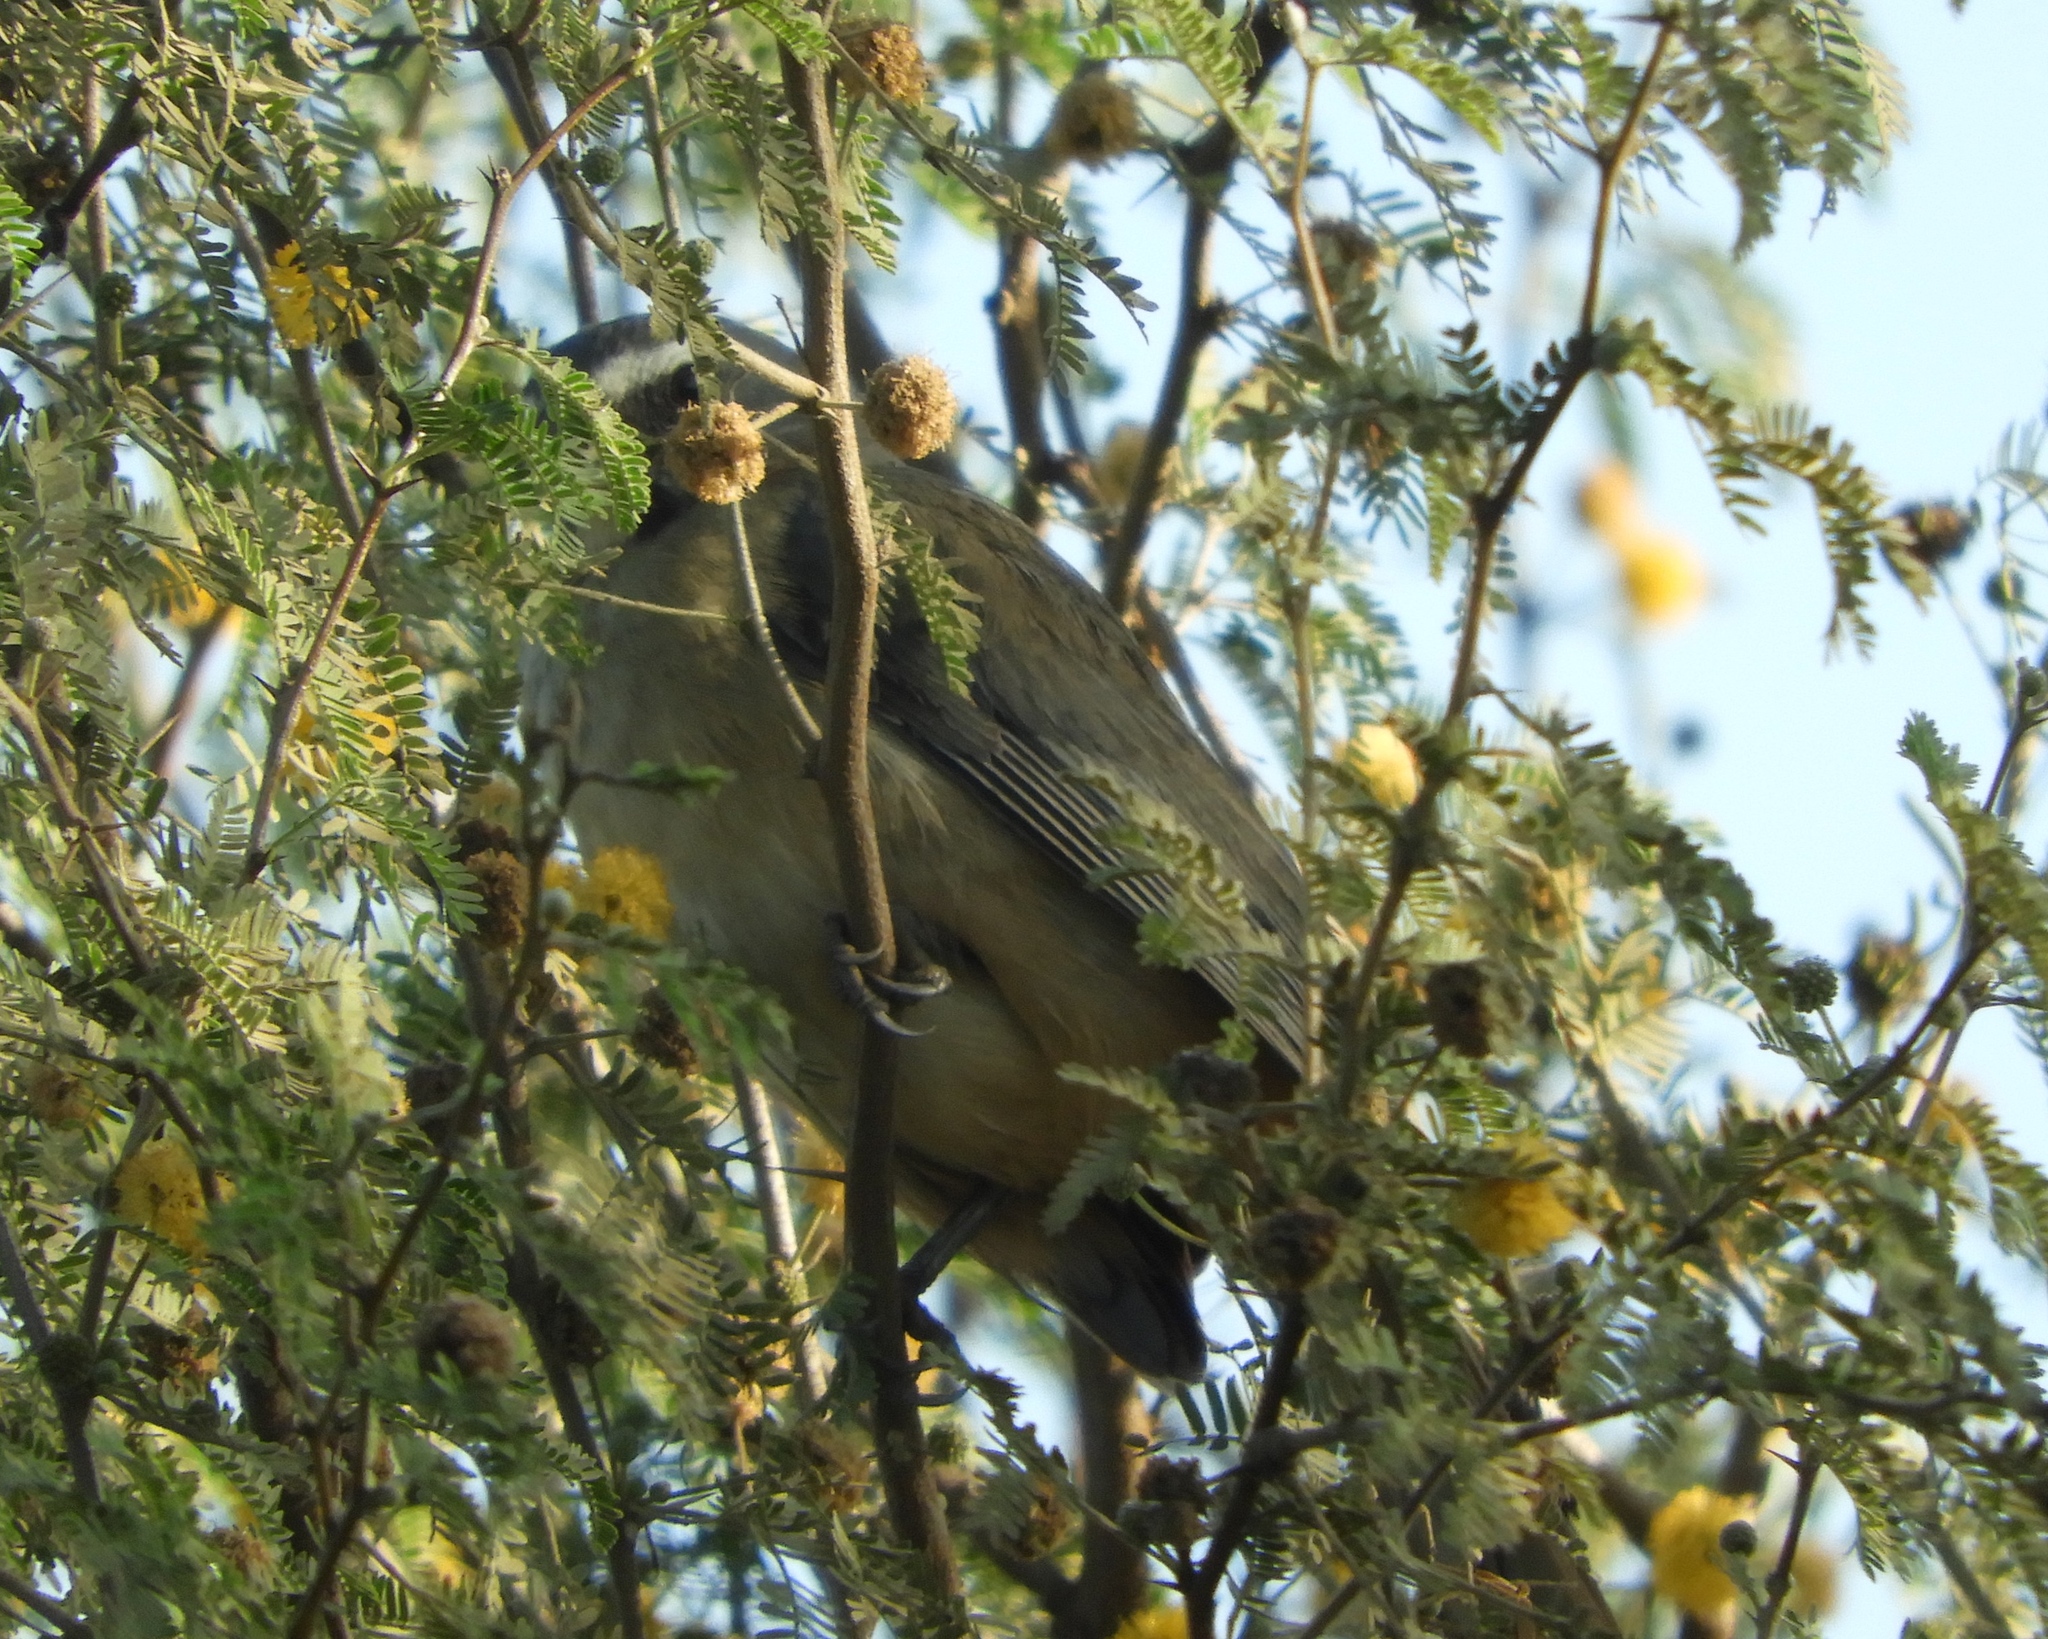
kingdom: Animalia
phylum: Chordata
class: Aves
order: Passeriformes
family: Thraupidae
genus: Saltator
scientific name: Saltator grandis
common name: Cinnamon-bellied saltator
